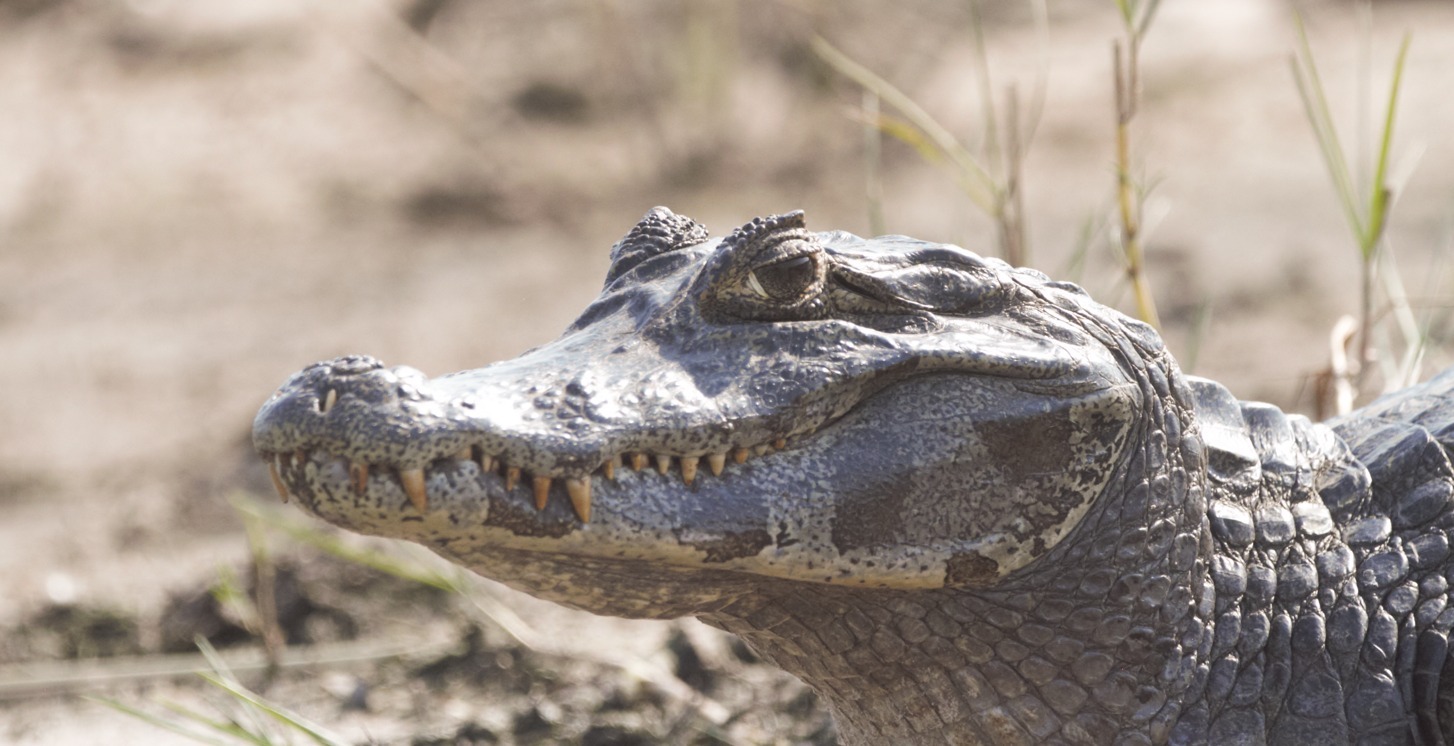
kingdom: Animalia
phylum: Chordata
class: Crocodylia
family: Alligatoridae
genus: Caiman
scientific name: Caiman yacare
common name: Yacare caiman
